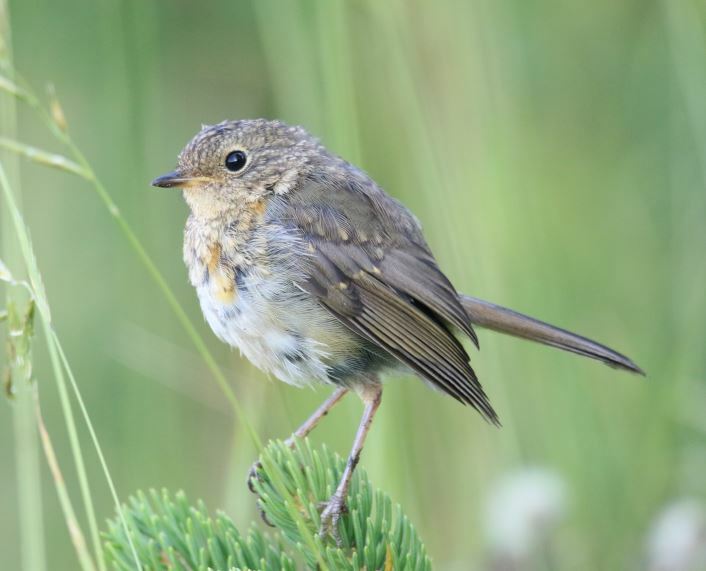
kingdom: Animalia
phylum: Chordata
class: Aves
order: Passeriformes
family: Muscicapidae
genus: Erithacus
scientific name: Erithacus rubecula
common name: European robin
